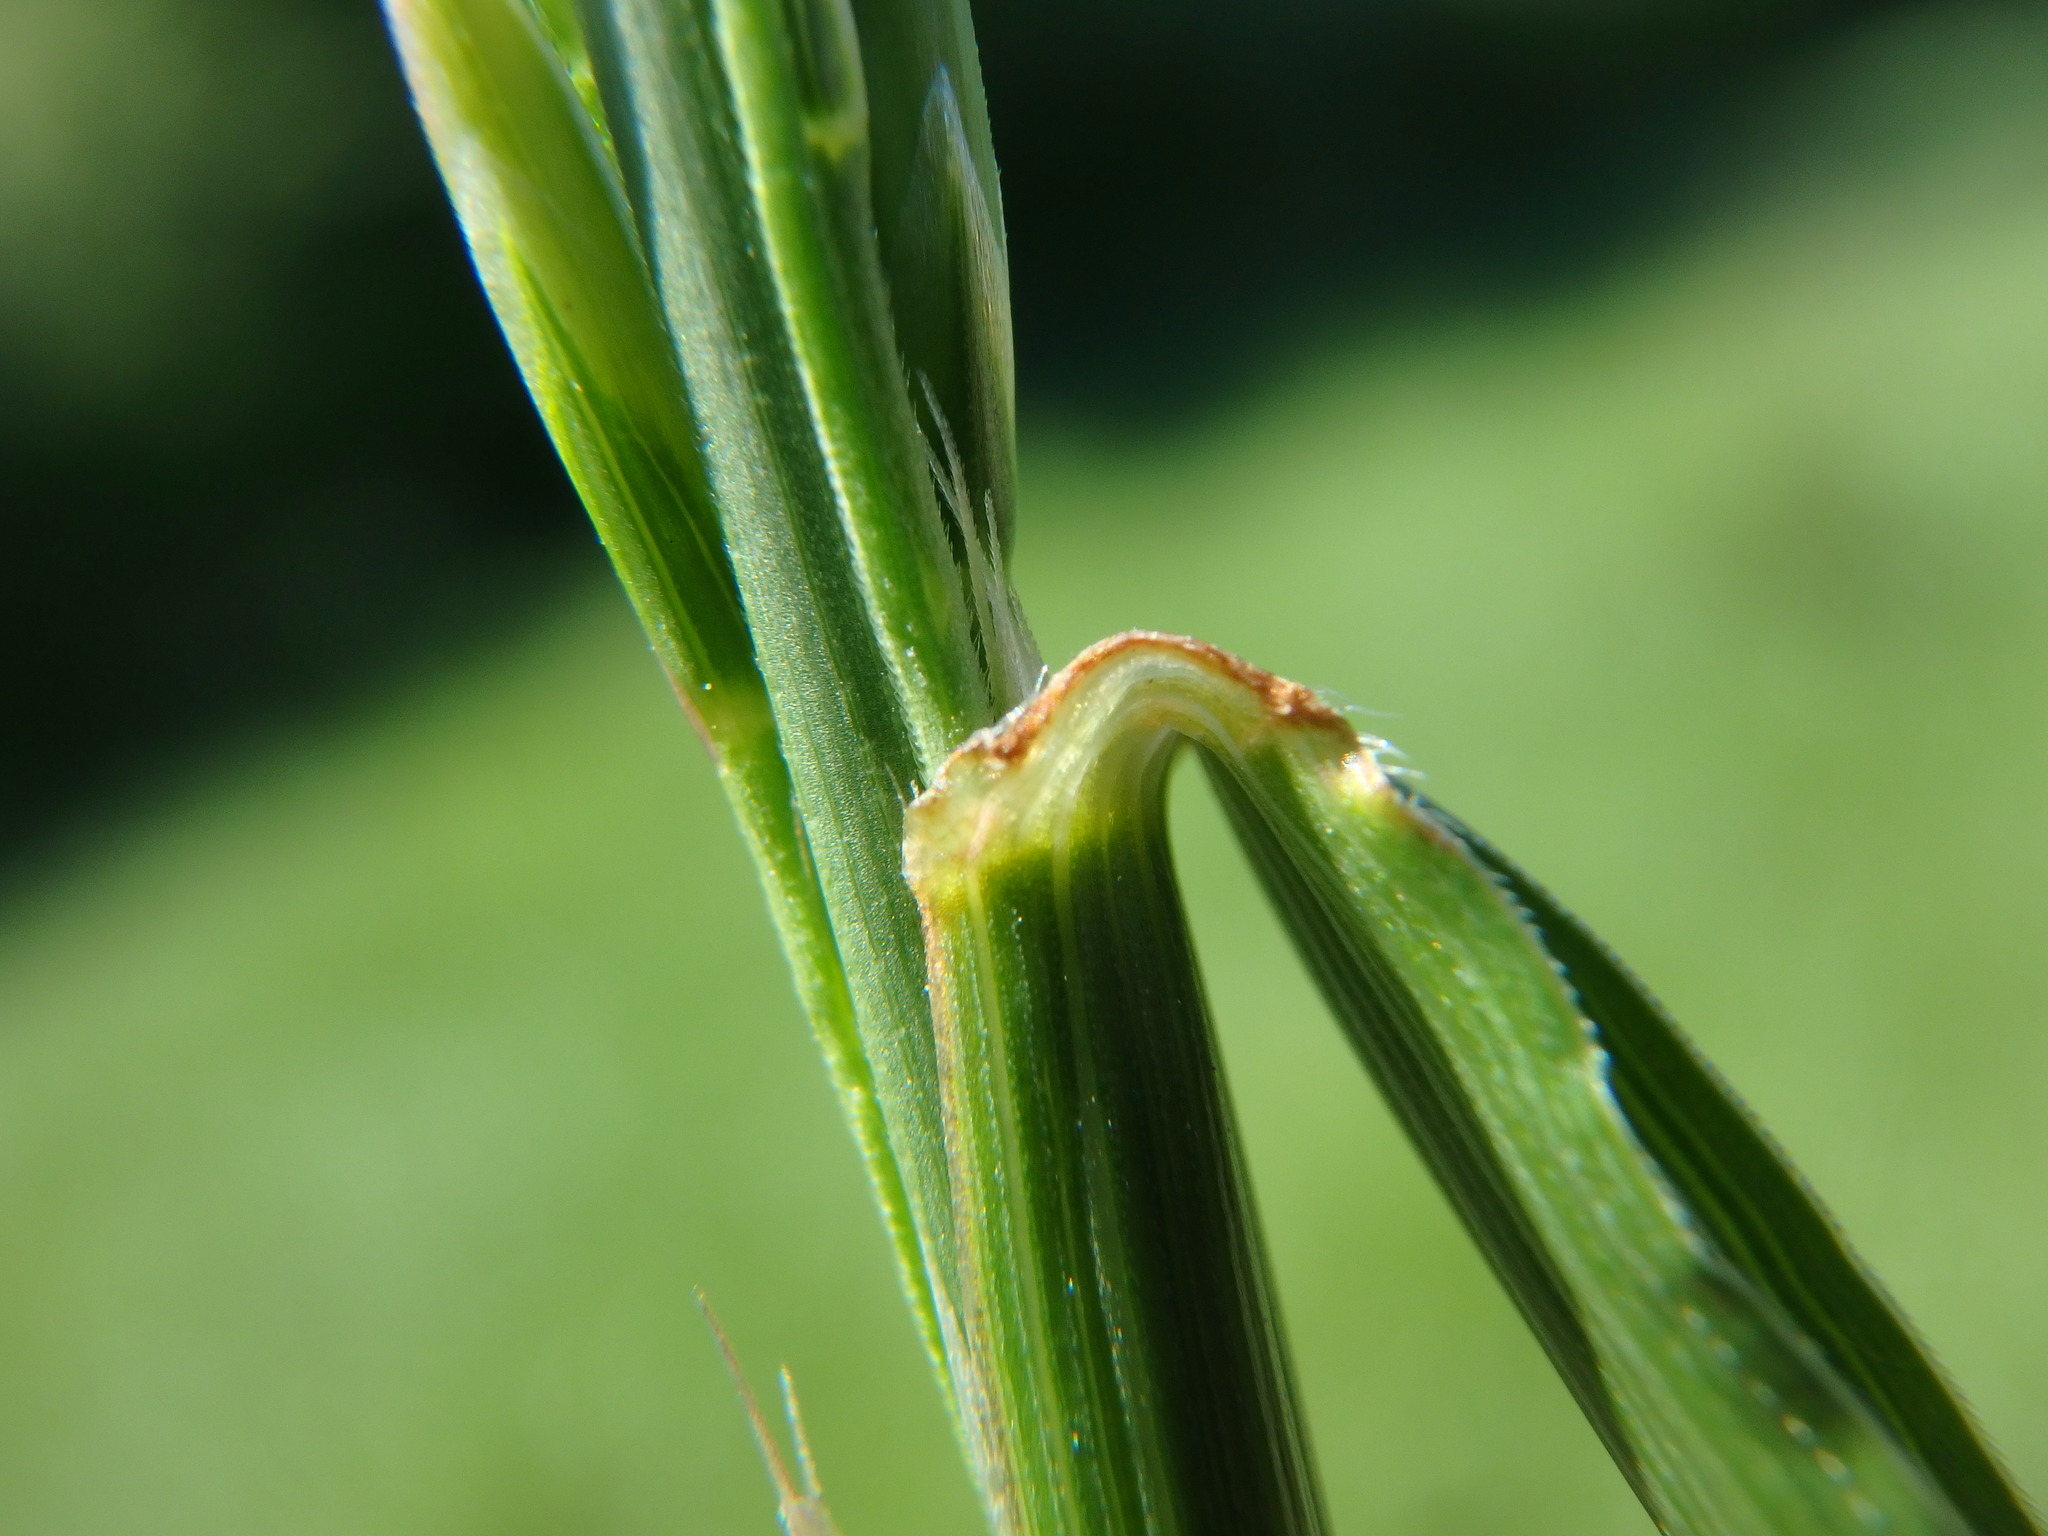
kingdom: Plantae
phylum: Tracheophyta
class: Liliopsida
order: Poales
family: Poaceae
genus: Lolium
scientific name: Lolium arundinaceum
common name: Reed fescue
